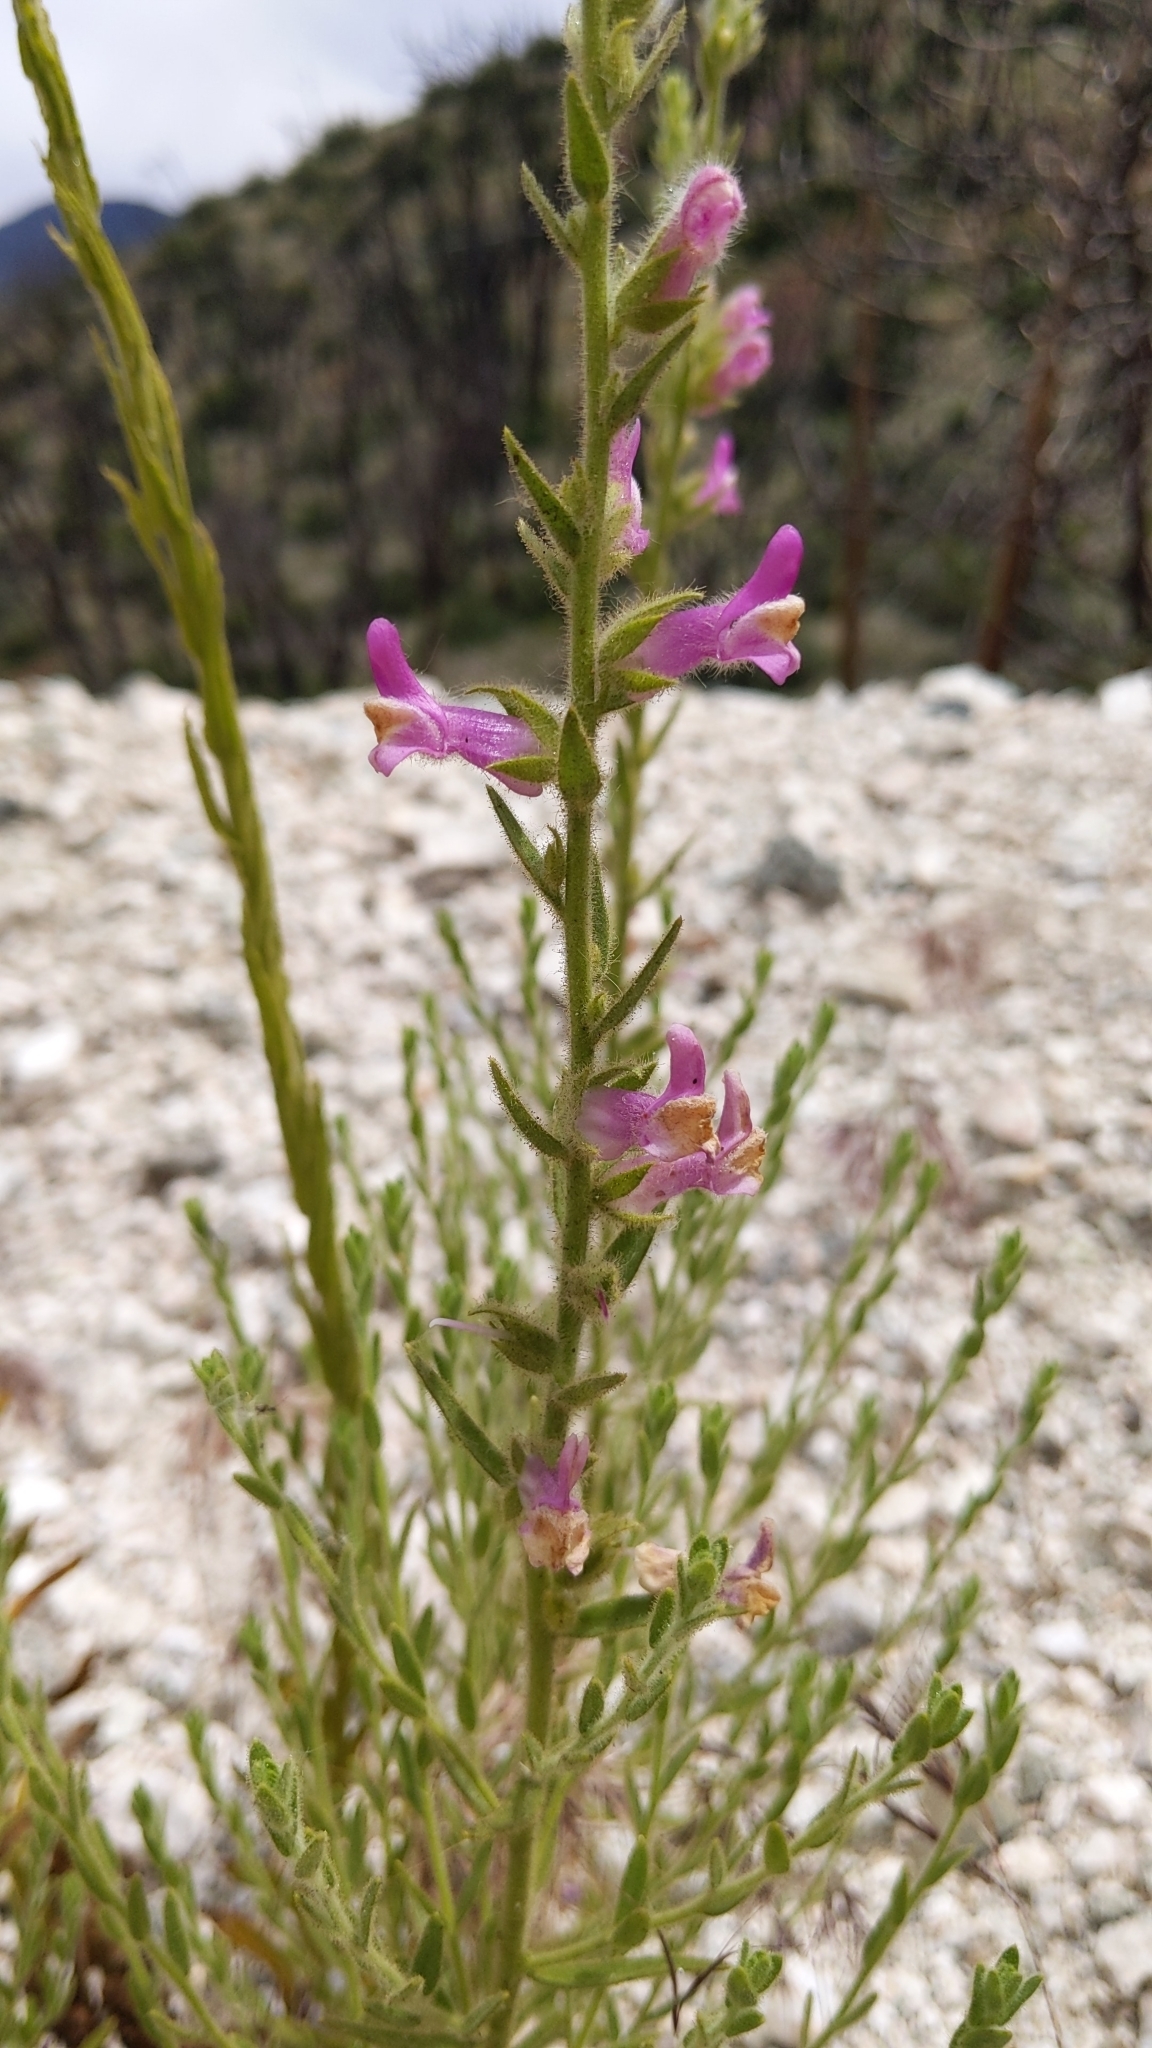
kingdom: Plantae
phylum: Tracheophyta
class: Magnoliopsida
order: Lamiales
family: Plantaginaceae
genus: Sairocarpus
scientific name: Sairocarpus multiflorus
